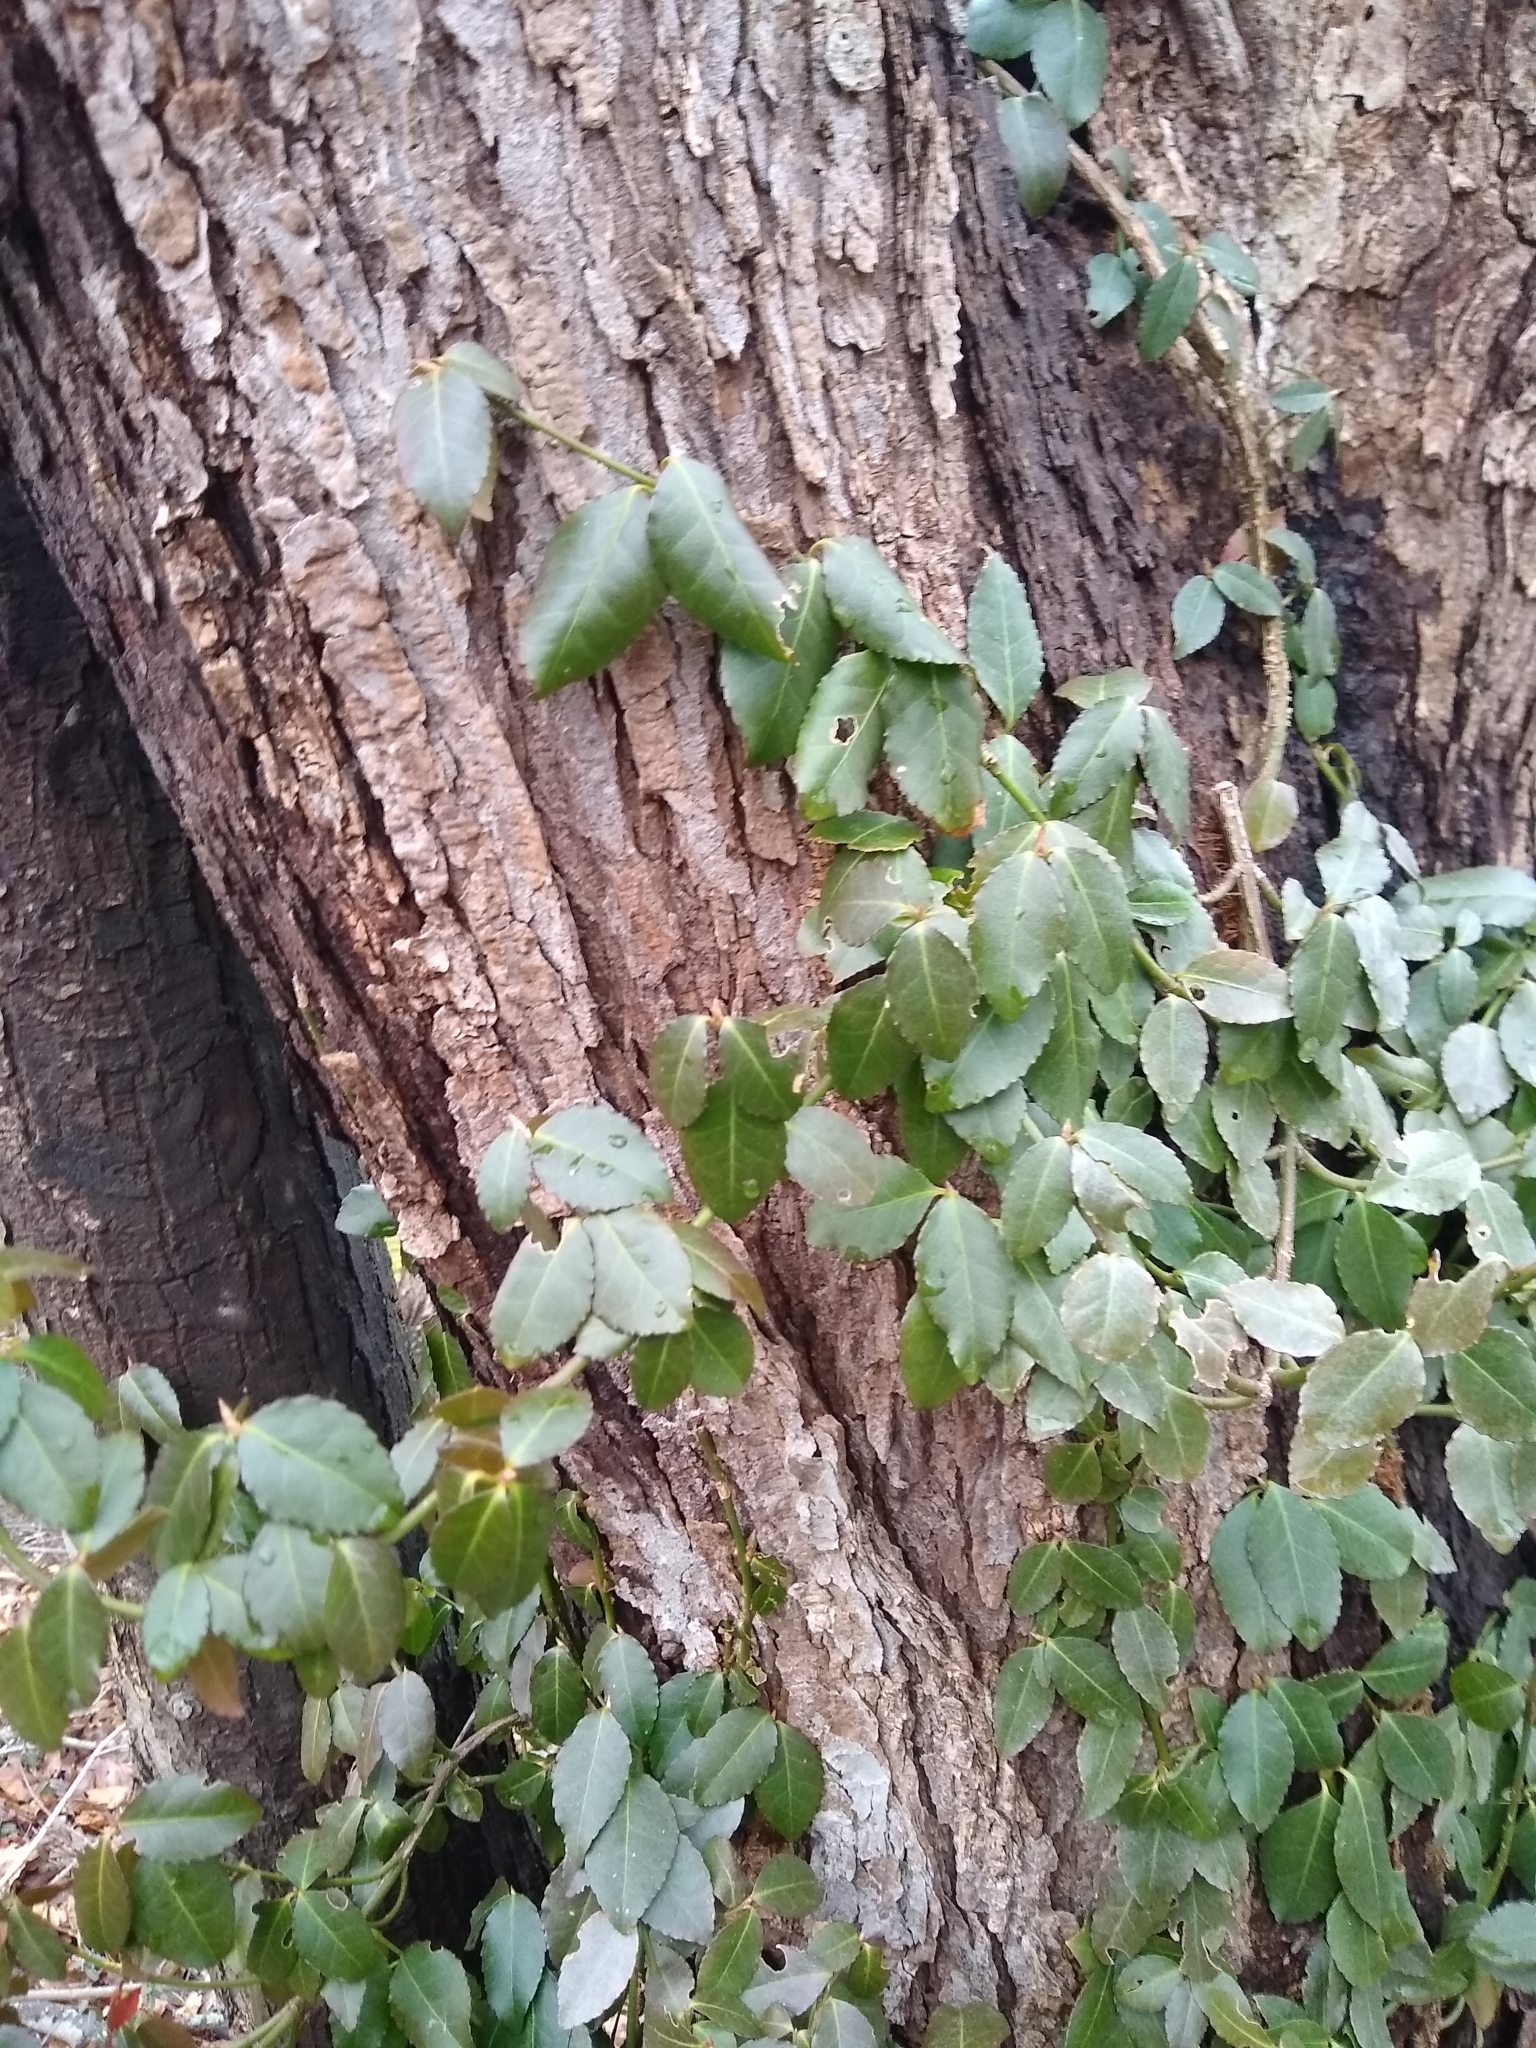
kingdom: Plantae
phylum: Tracheophyta
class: Magnoliopsida
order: Celastrales
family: Celastraceae
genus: Euonymus
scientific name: Euonymus fortunei
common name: Climbing euonymus
